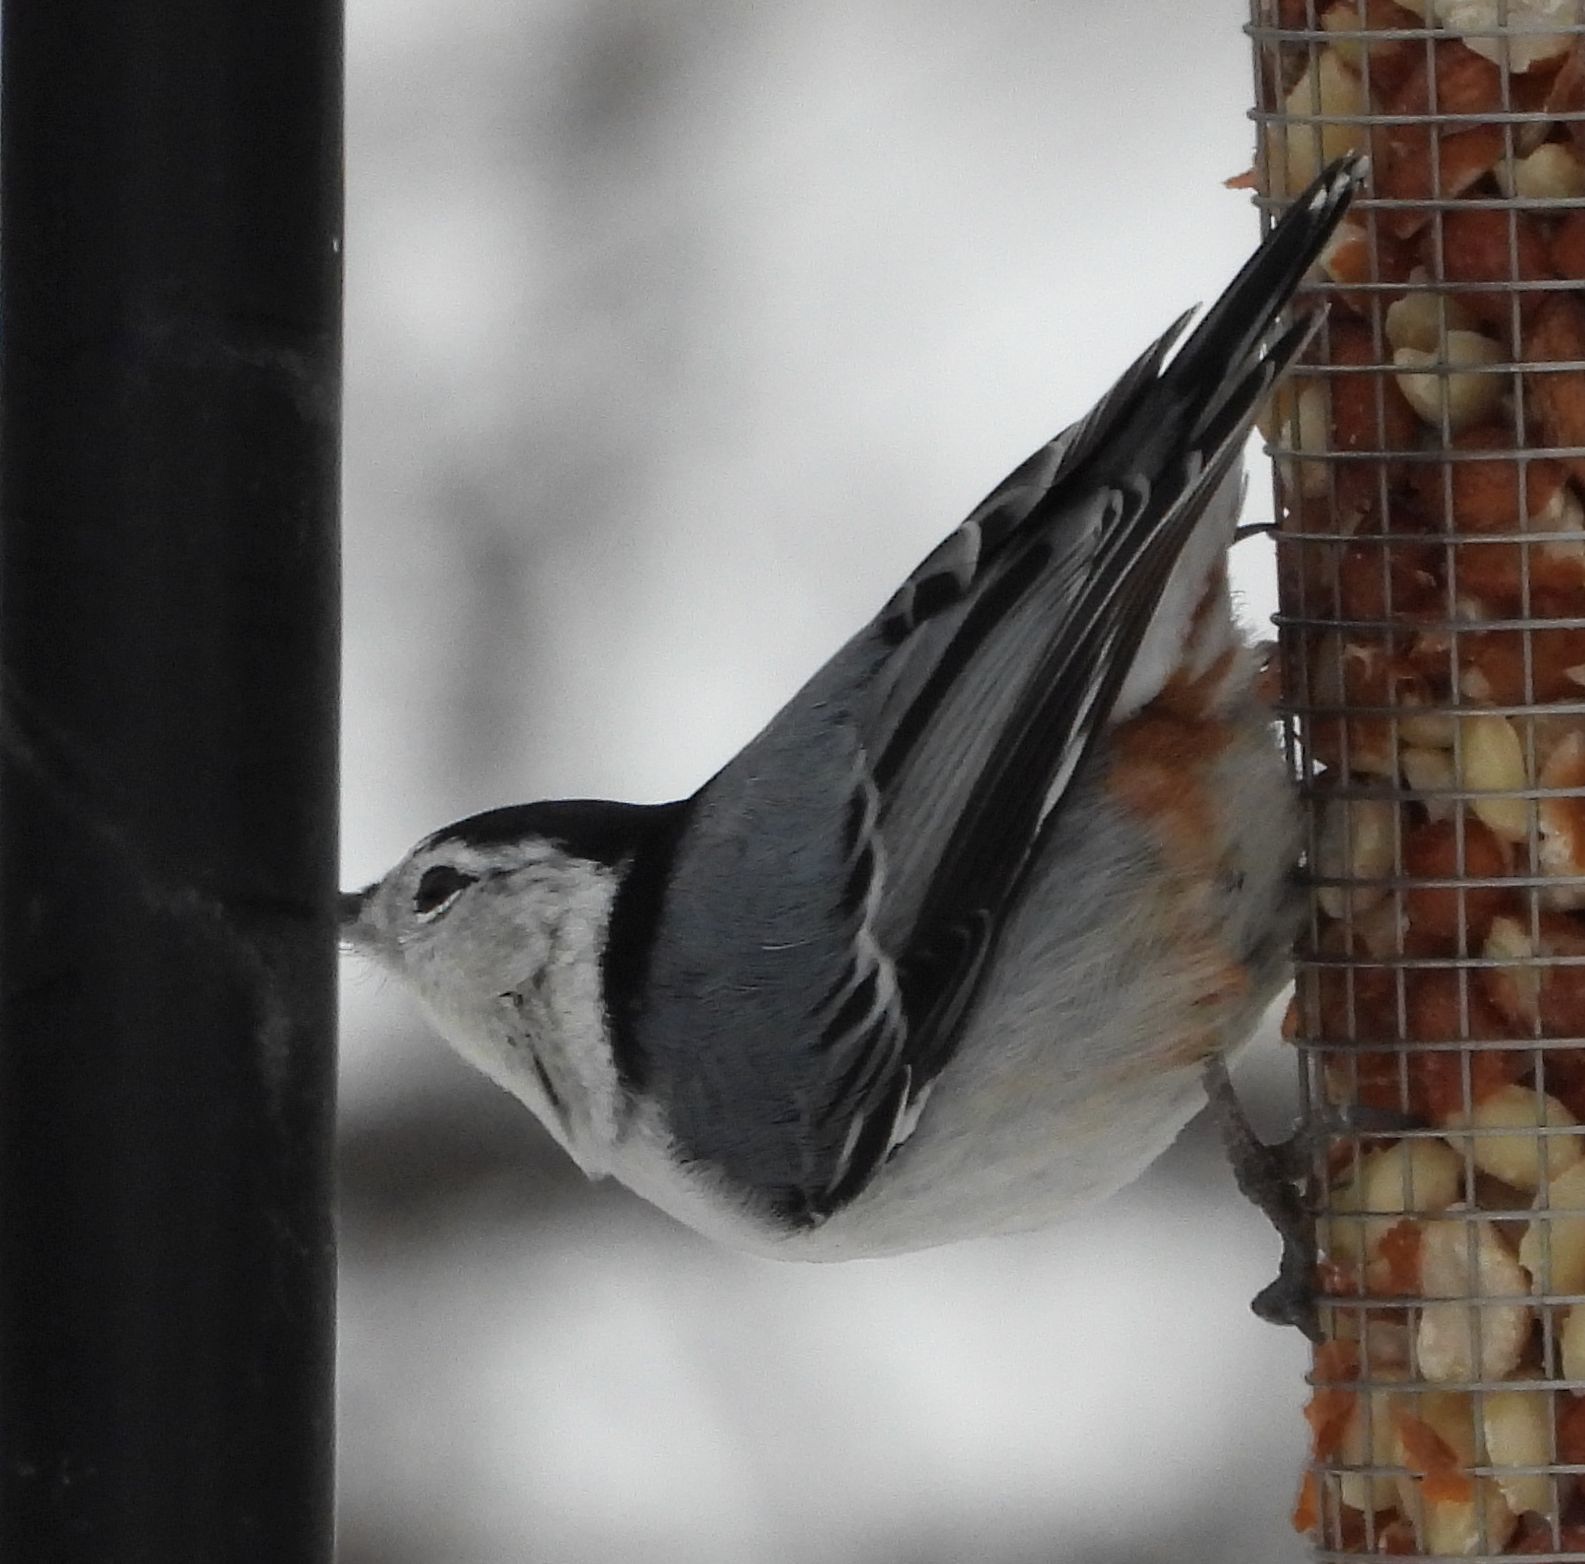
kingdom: Animalia
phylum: Chordata
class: Aves
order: Passeriformes
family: Sittidae
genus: Sitta
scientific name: Sitta carolinensis
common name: White-breasted nuthatch
